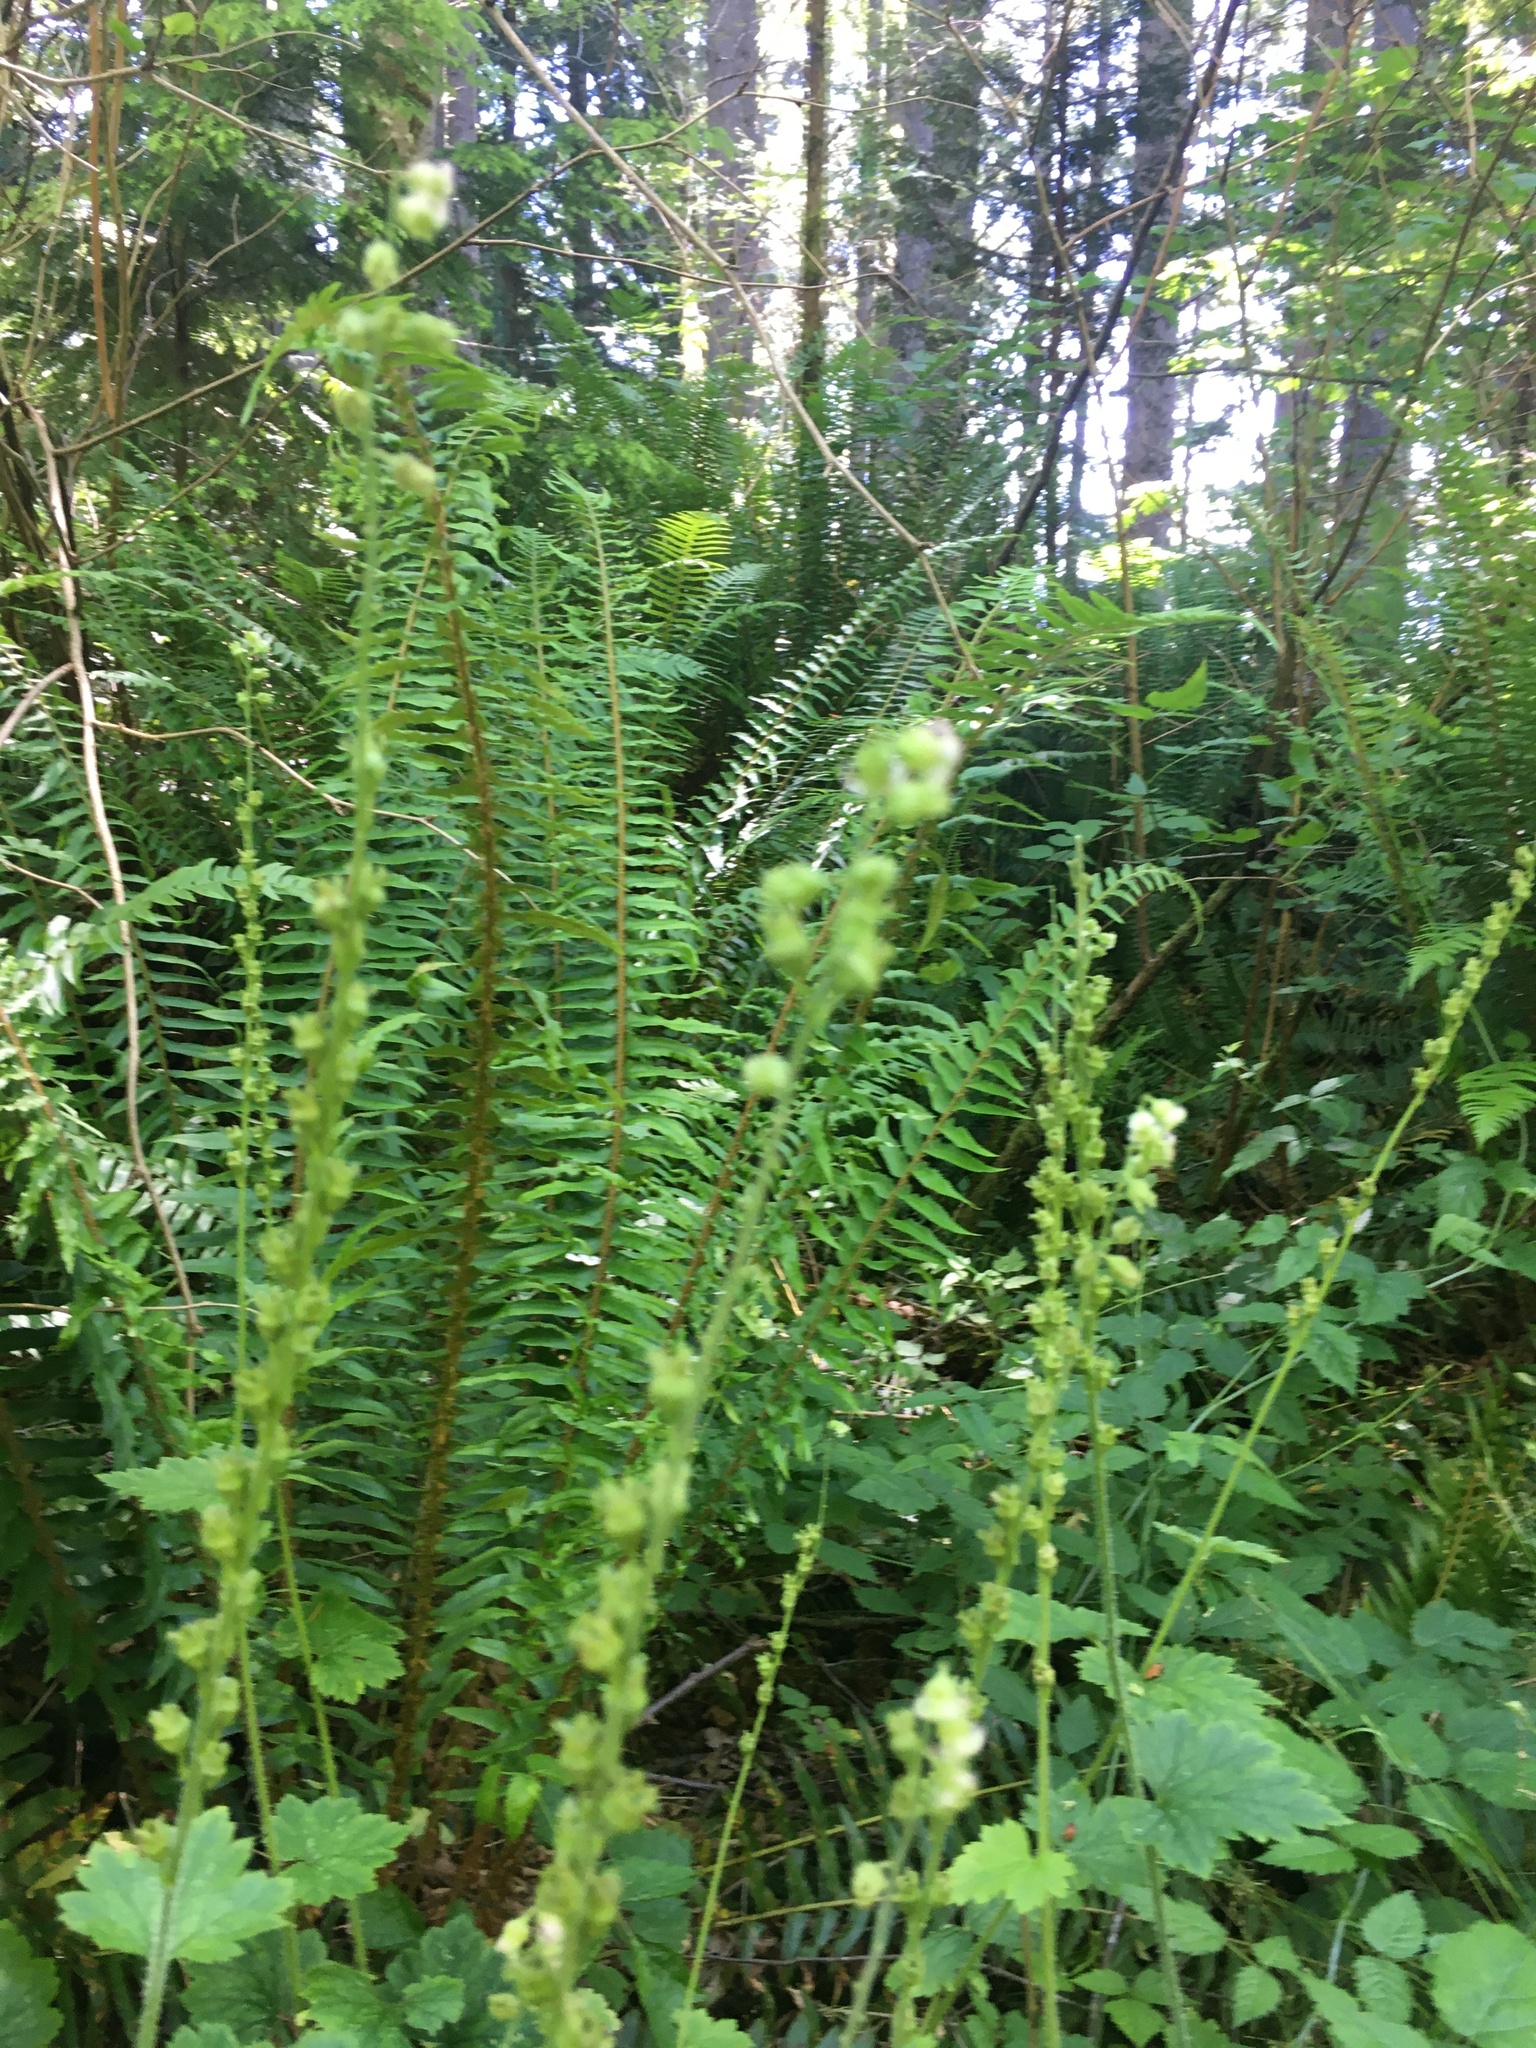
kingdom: Plantae
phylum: Tracheophyta
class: Magnoliopsida
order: Saxifragales
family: Saxifragaceae
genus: Tellima
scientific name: Tellima grandiflora
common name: Fringecups
